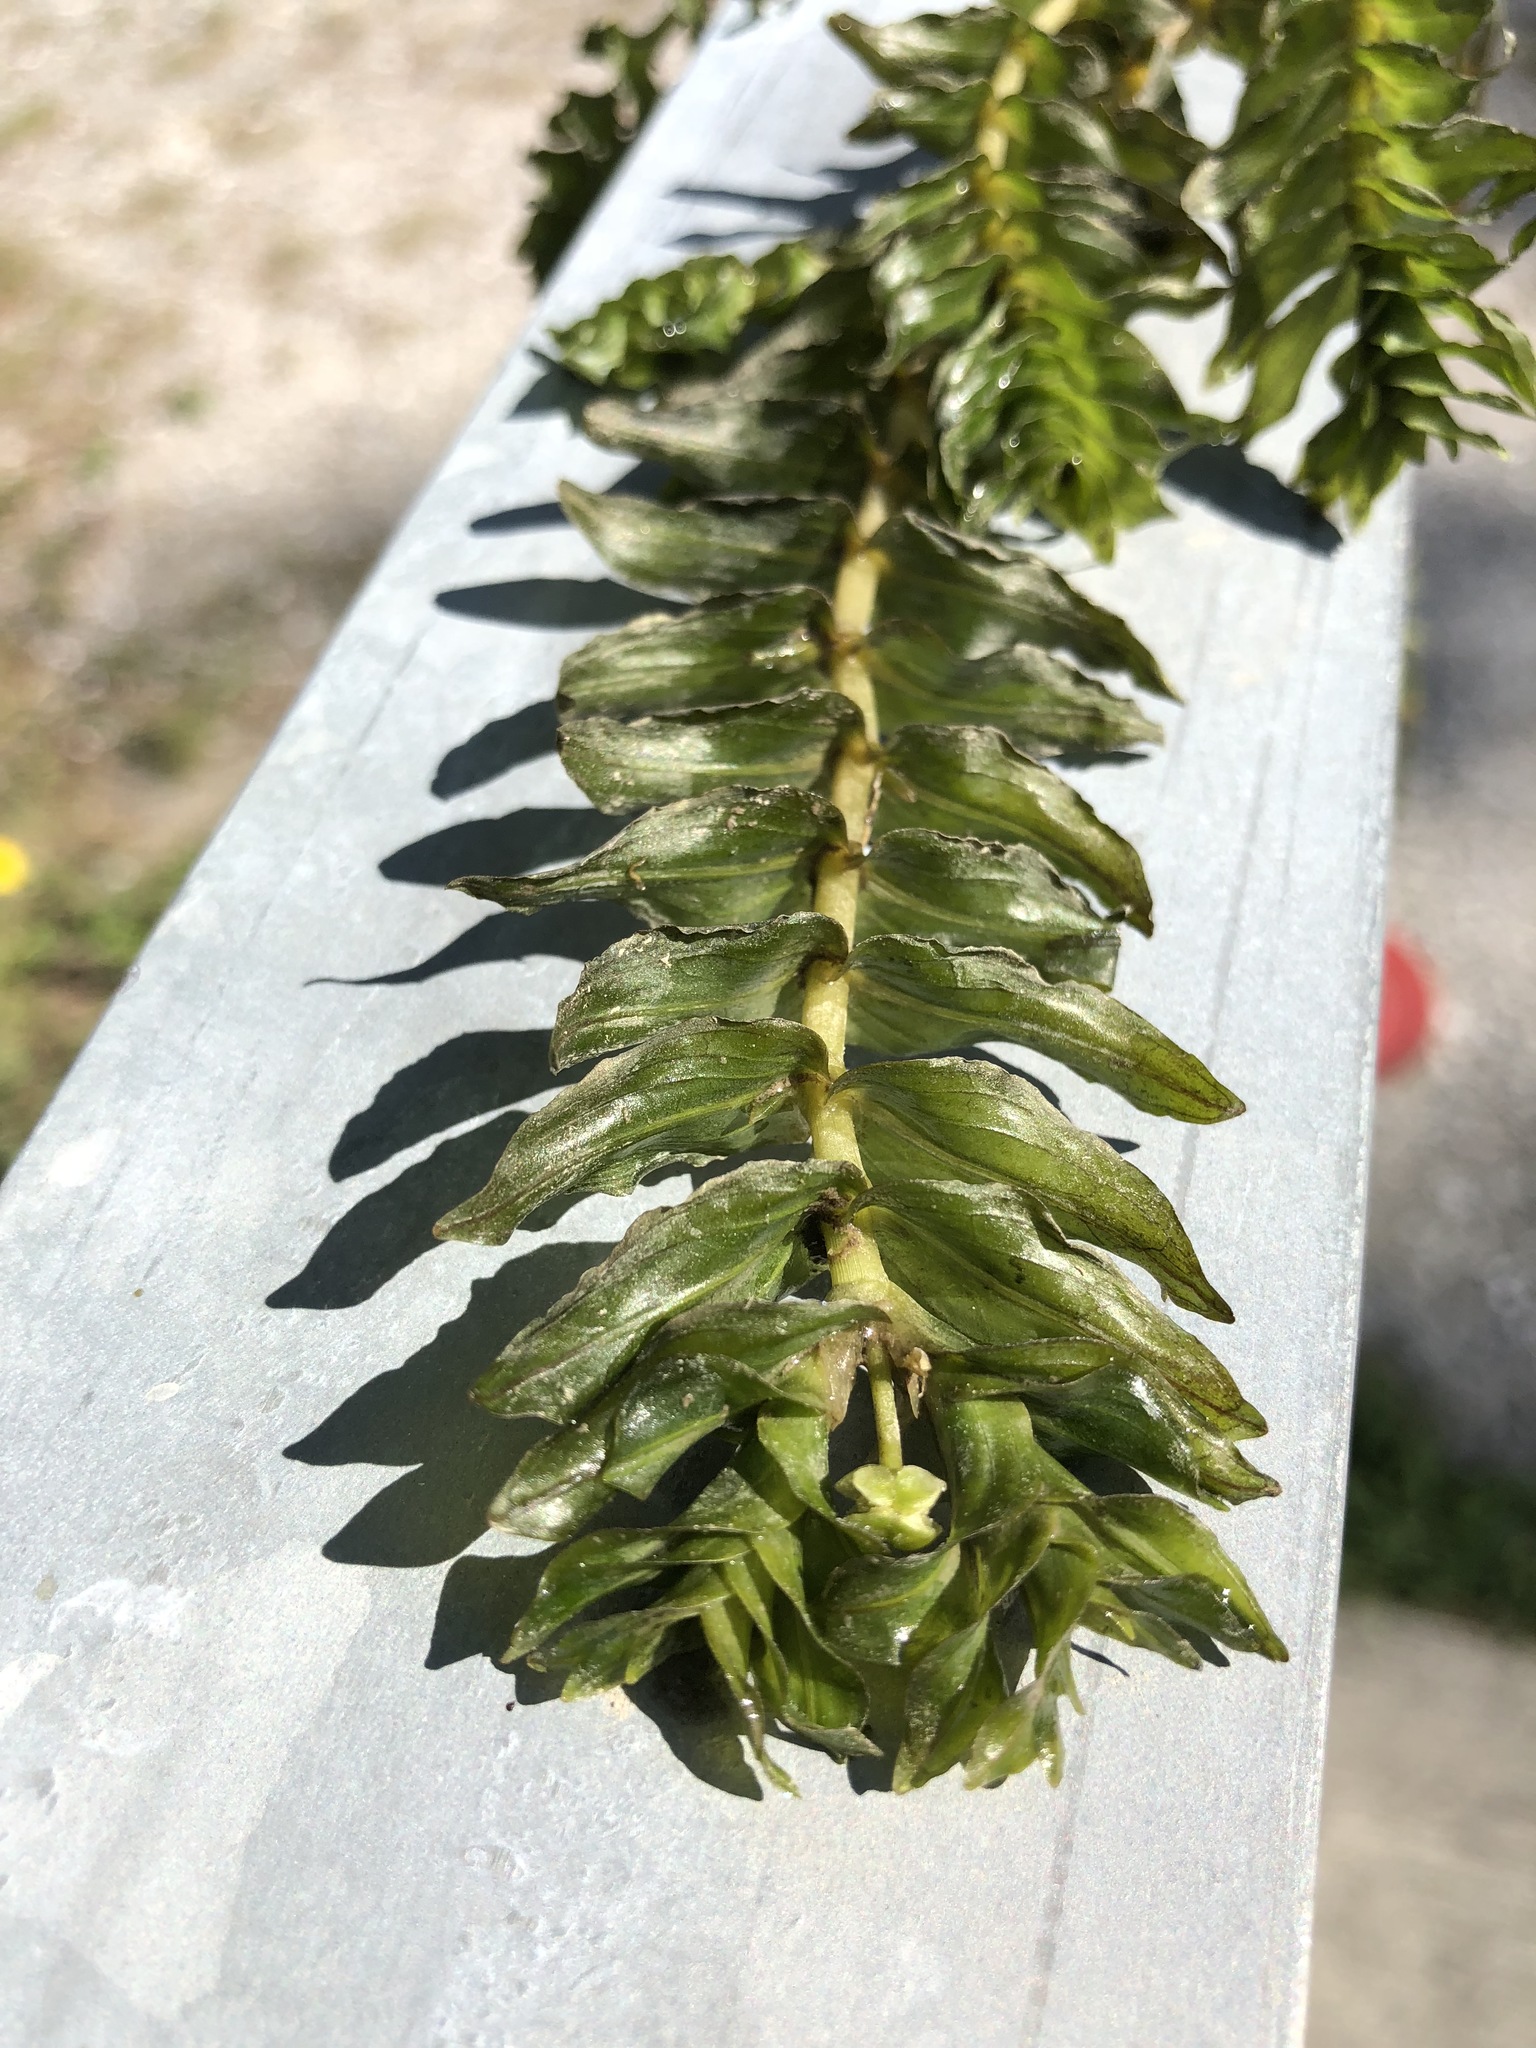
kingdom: Plantae
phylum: Tracheophyta
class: Liliopsida
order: Alismatales
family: Potamogetonaceae
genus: Groenlandia
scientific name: Groenlandia densa
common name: Opposite-leaved pondweed
